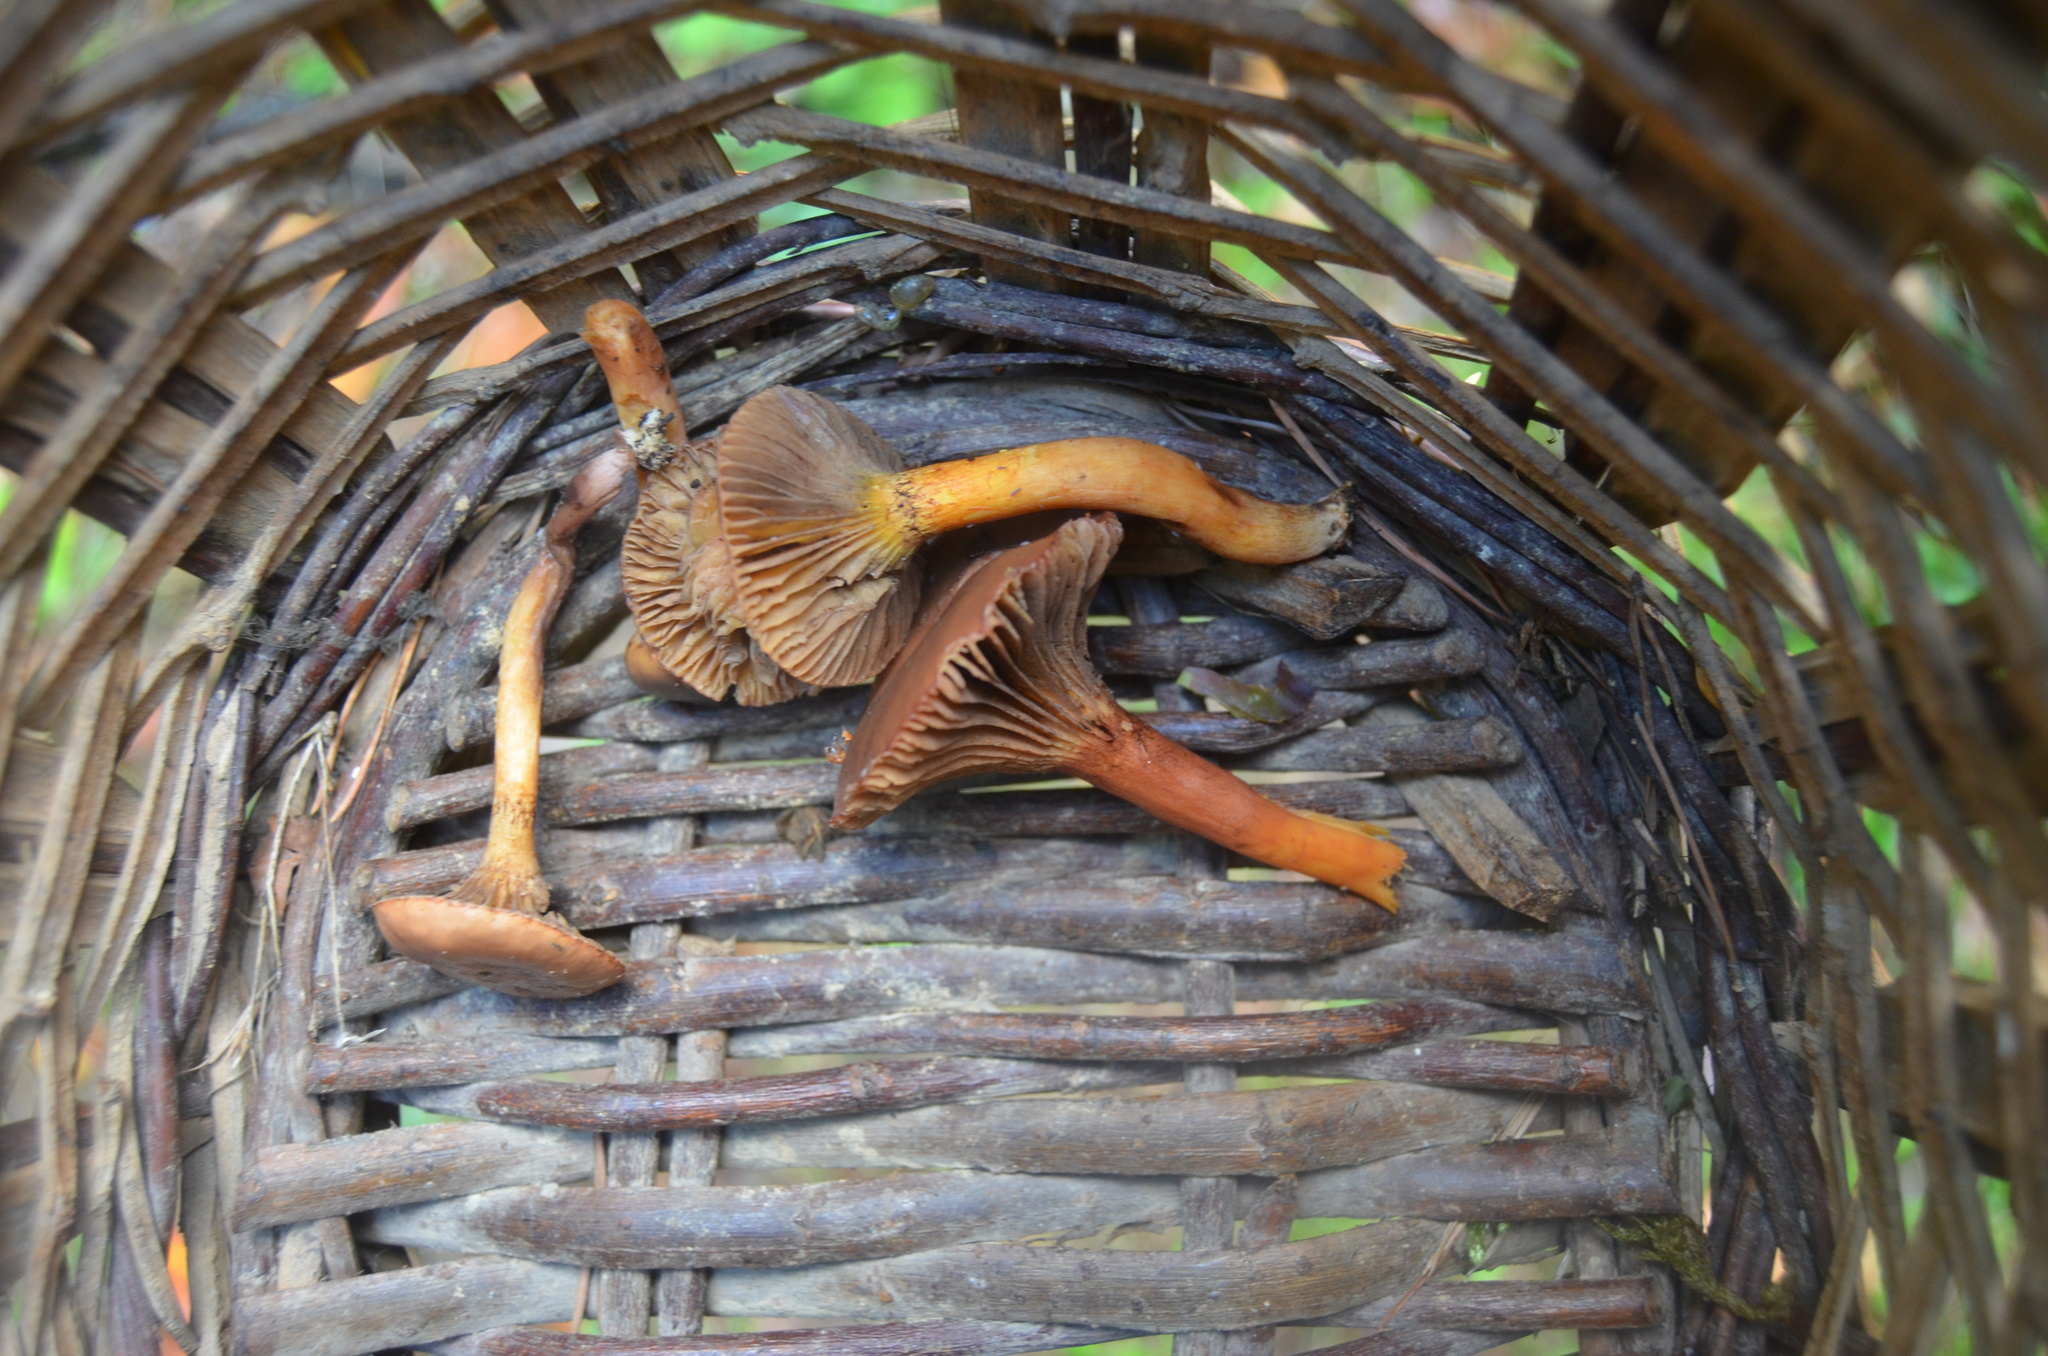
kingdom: Fungi
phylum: Basidiomycota
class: Agaricomycetes
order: Boletales
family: Gomphidiaceae
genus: Chroogomphus
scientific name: Chroogomphus rutilus
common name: Copper spike
